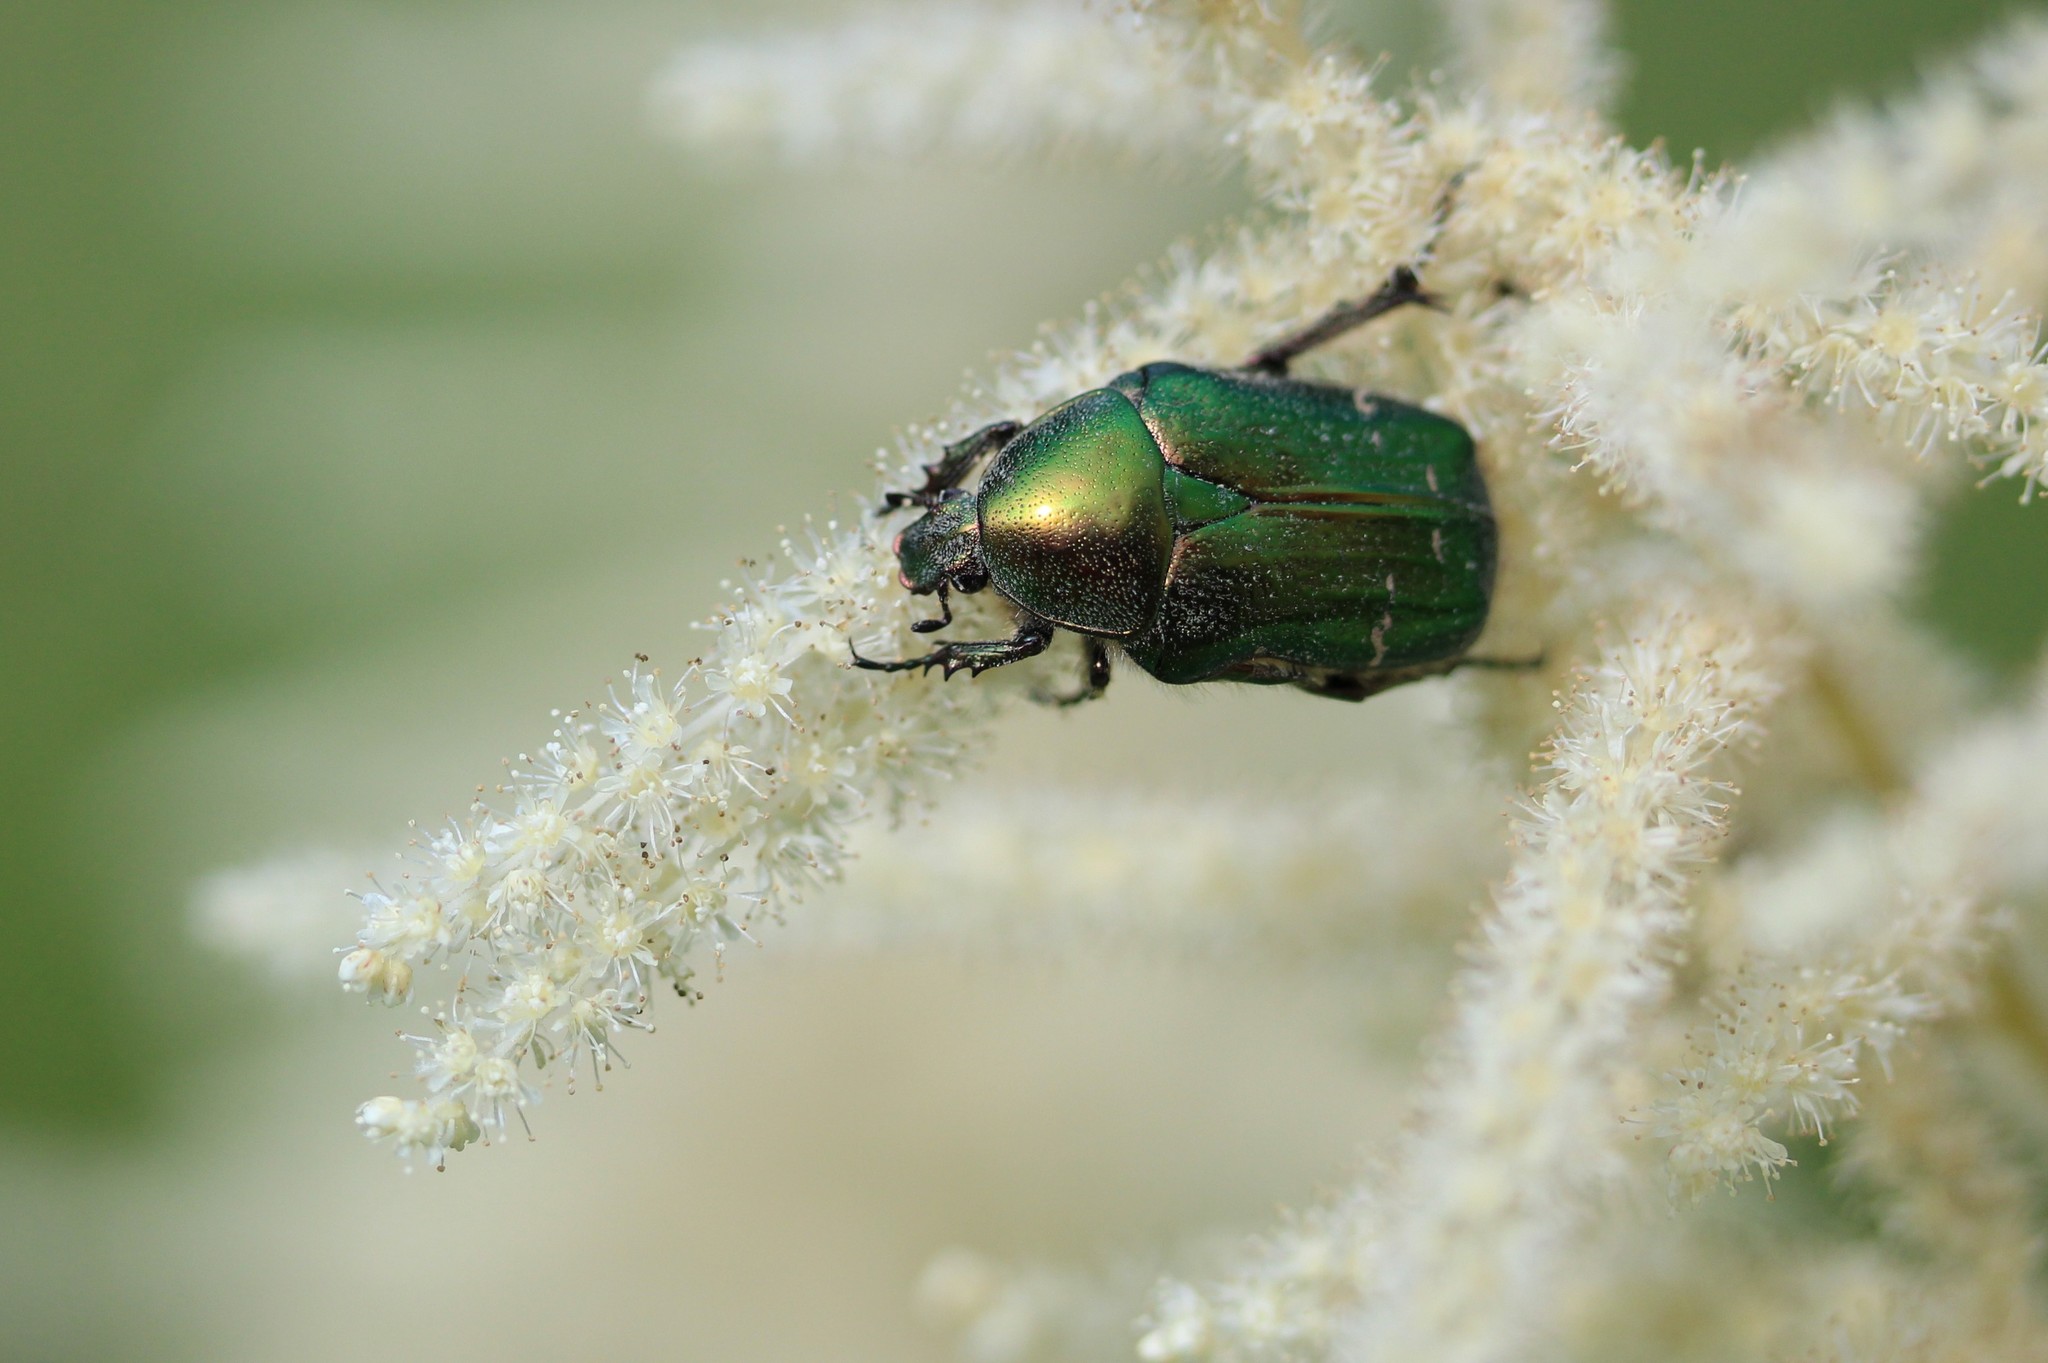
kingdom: Animalia
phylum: Arthropoda
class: Insecta
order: Coleoptera
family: Scarabaeidae
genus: Cetonia
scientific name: Cetonia aurata
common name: Rose chafer
